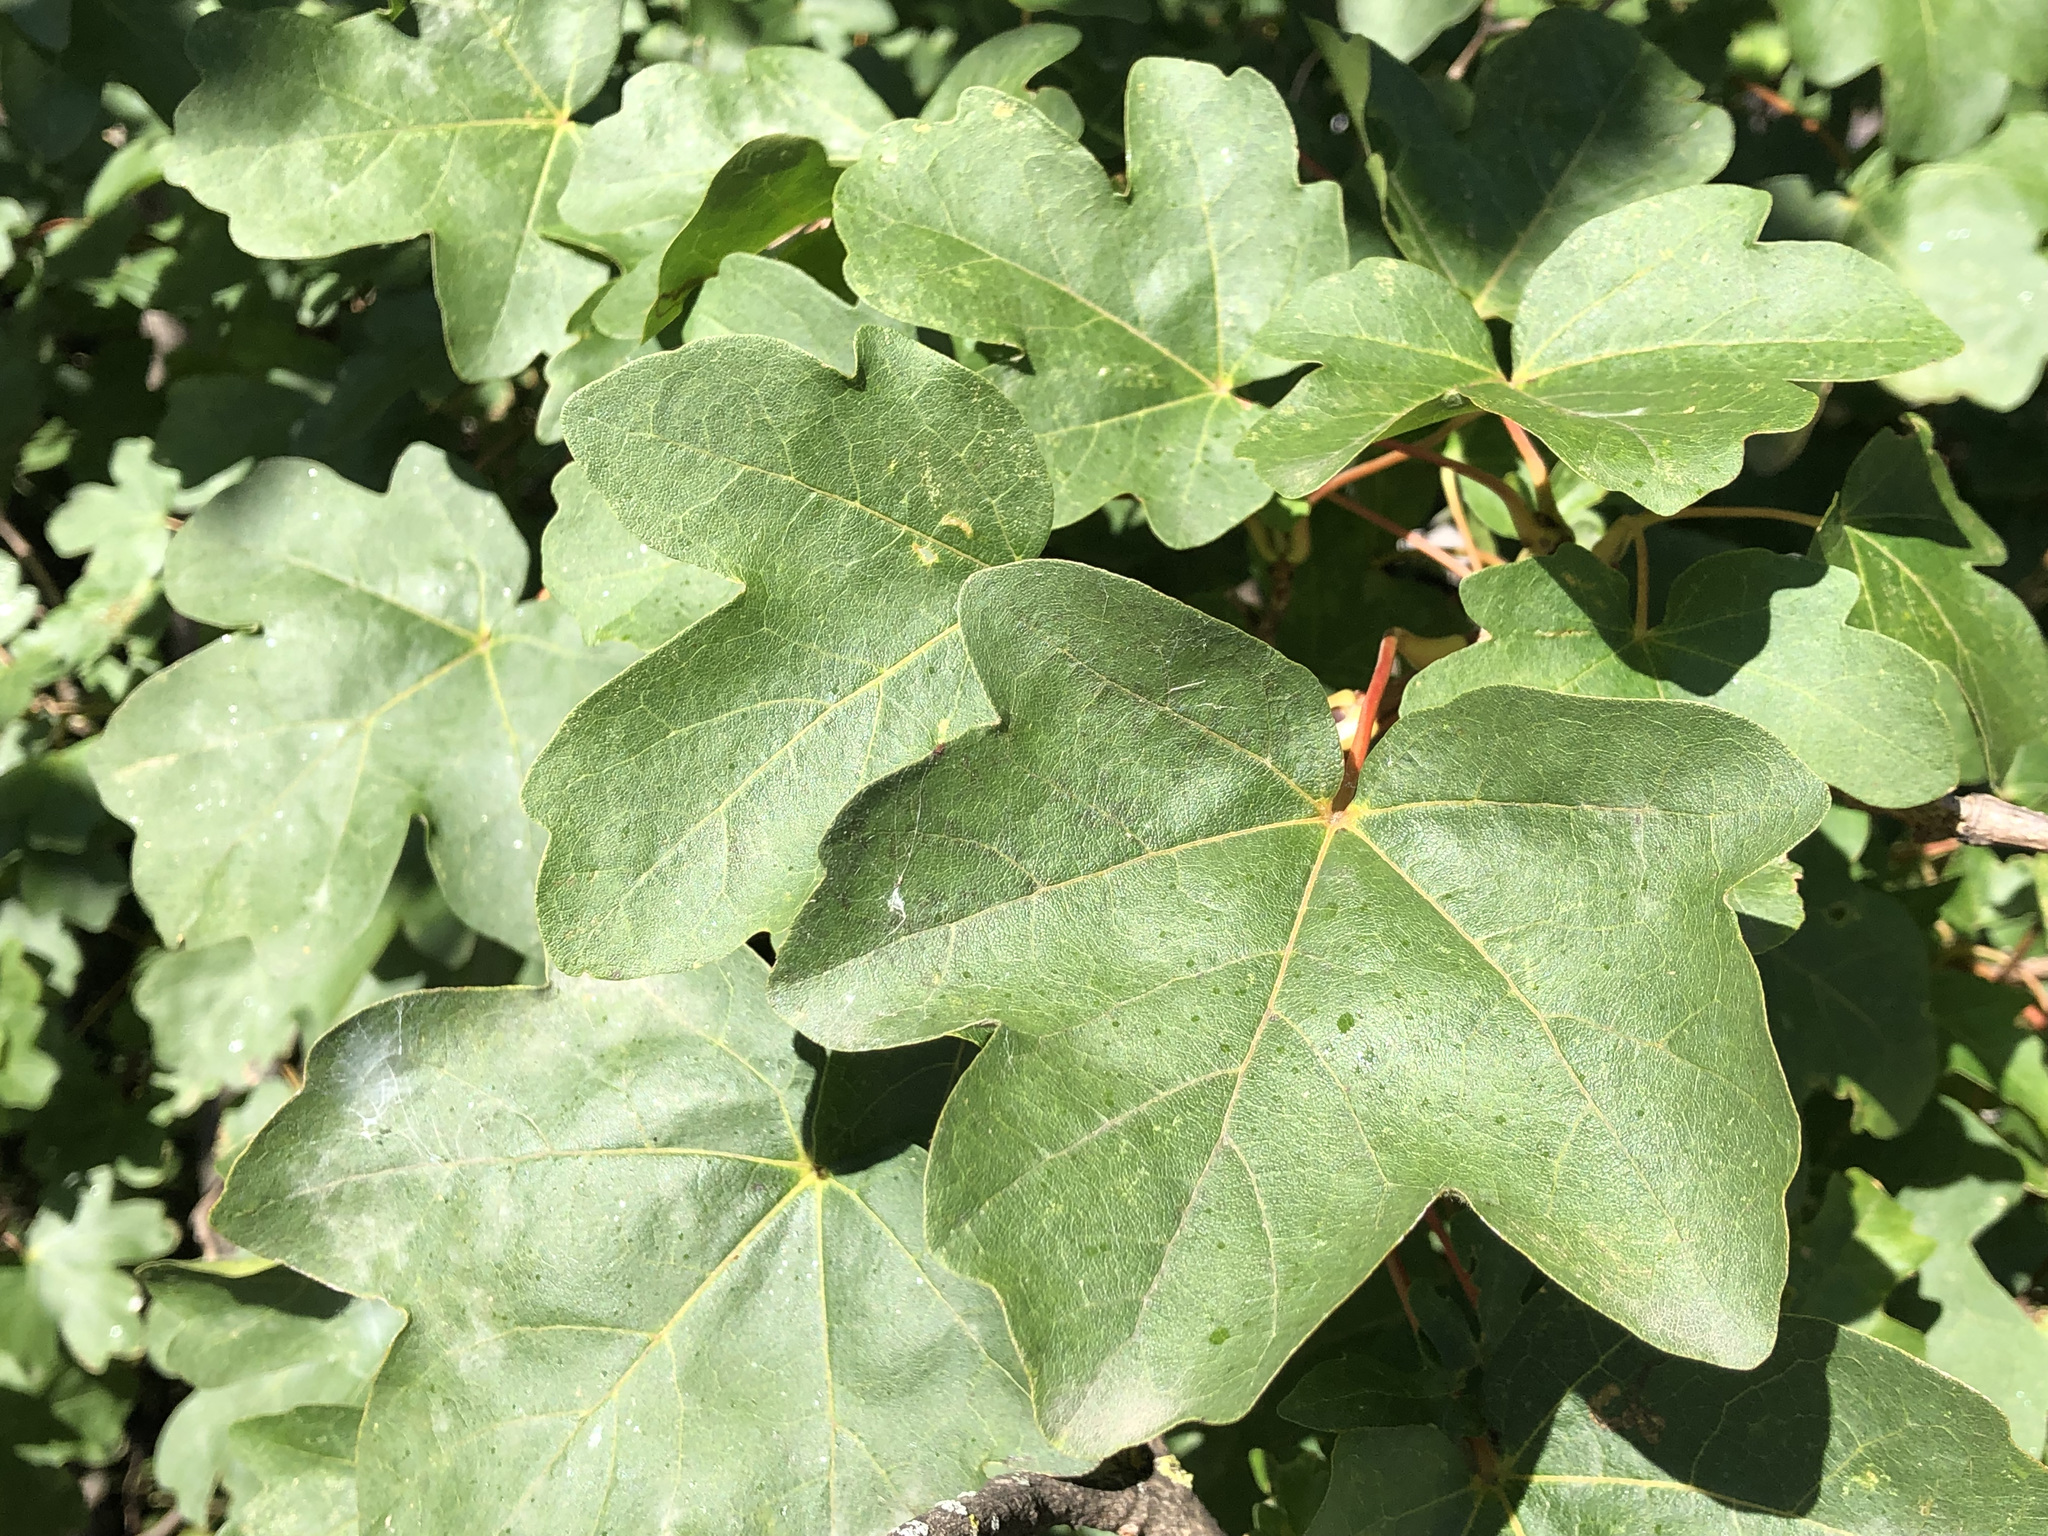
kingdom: Plantae
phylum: Tracheophyta
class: Magnoliopsida
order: Sapindales
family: Sapindaceae
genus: Acer
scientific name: Acer campestre
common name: Field maple
